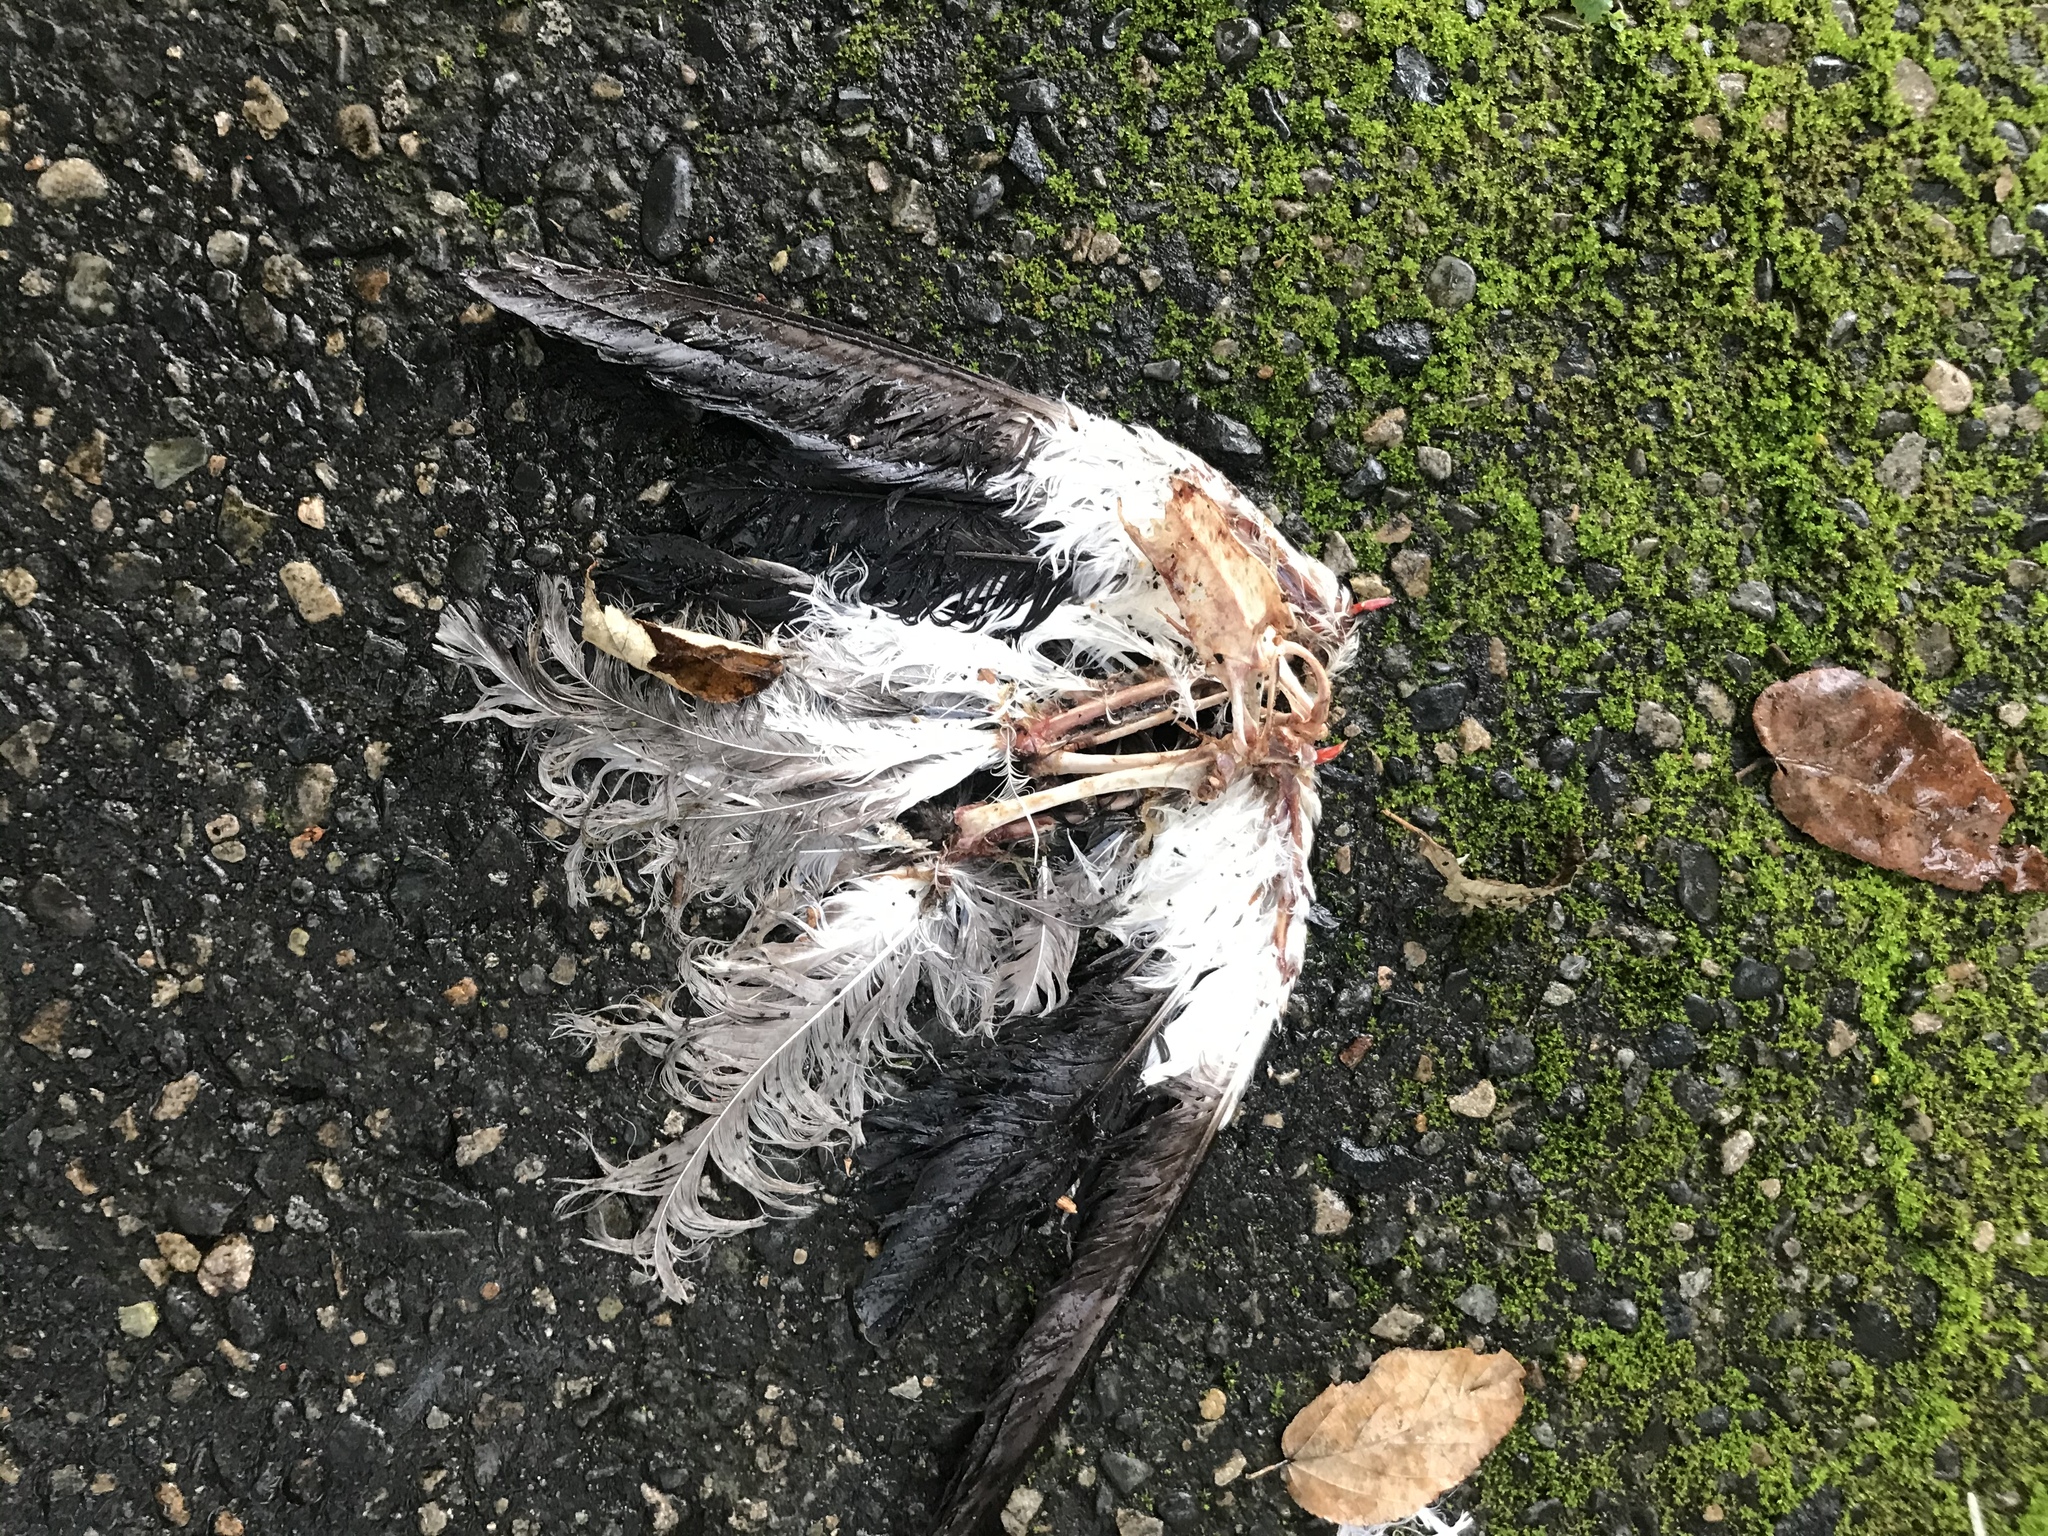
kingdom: Animalia
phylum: Chordata
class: Aves
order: Charadriiformes
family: Charadriidae
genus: Vanellus
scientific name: Vanellus chilensis
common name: Southern lapwing
